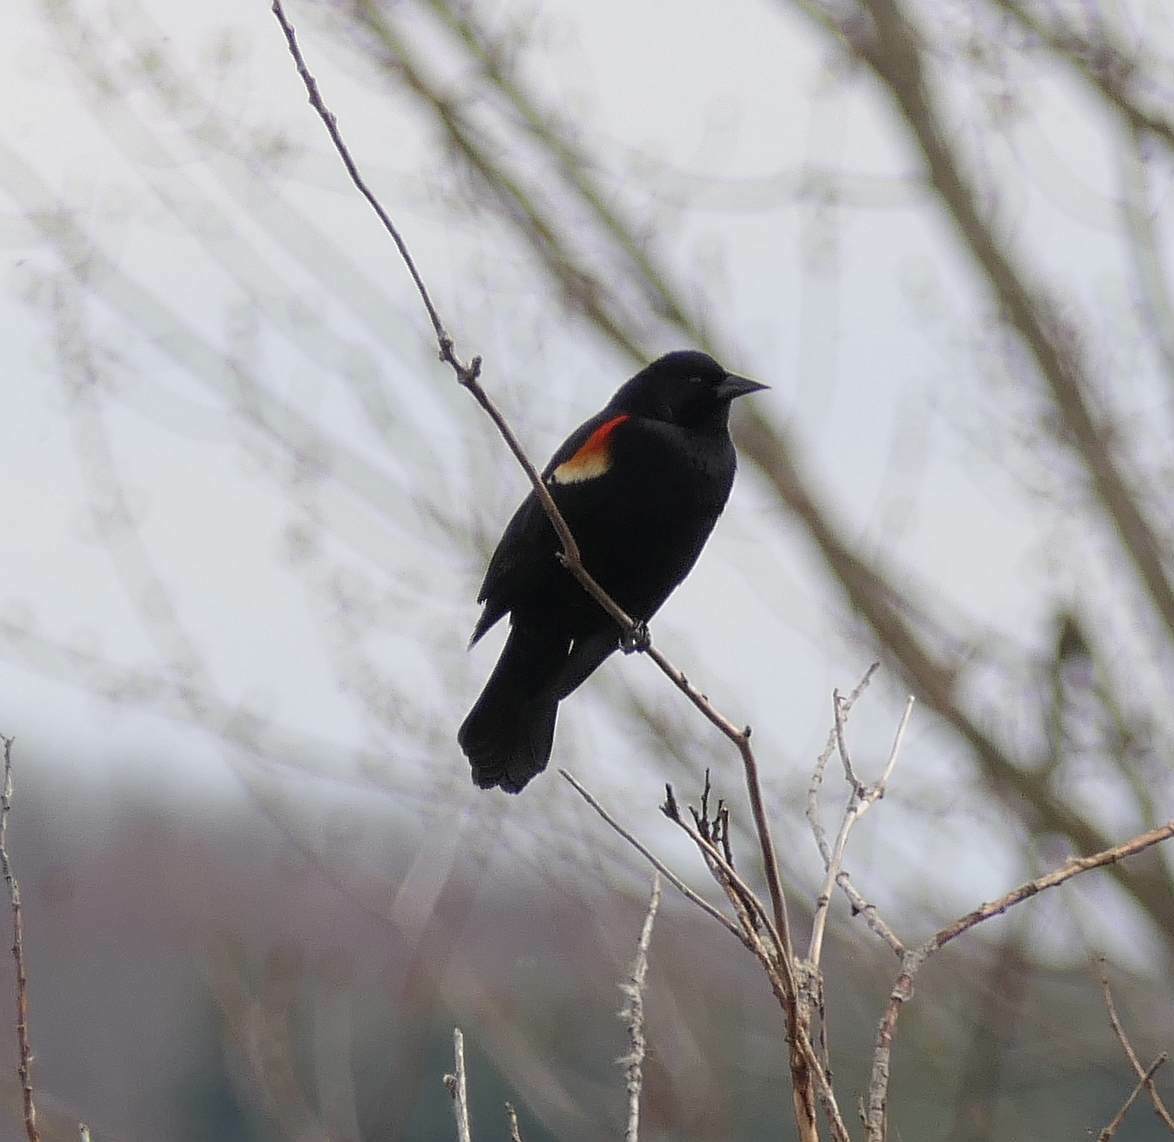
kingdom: Animalia
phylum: Chordata
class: Aves
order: Passeriformes
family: Icteridae
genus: Agelaius
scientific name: Agelaius phoeniceus
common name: Red-winged blackbird
